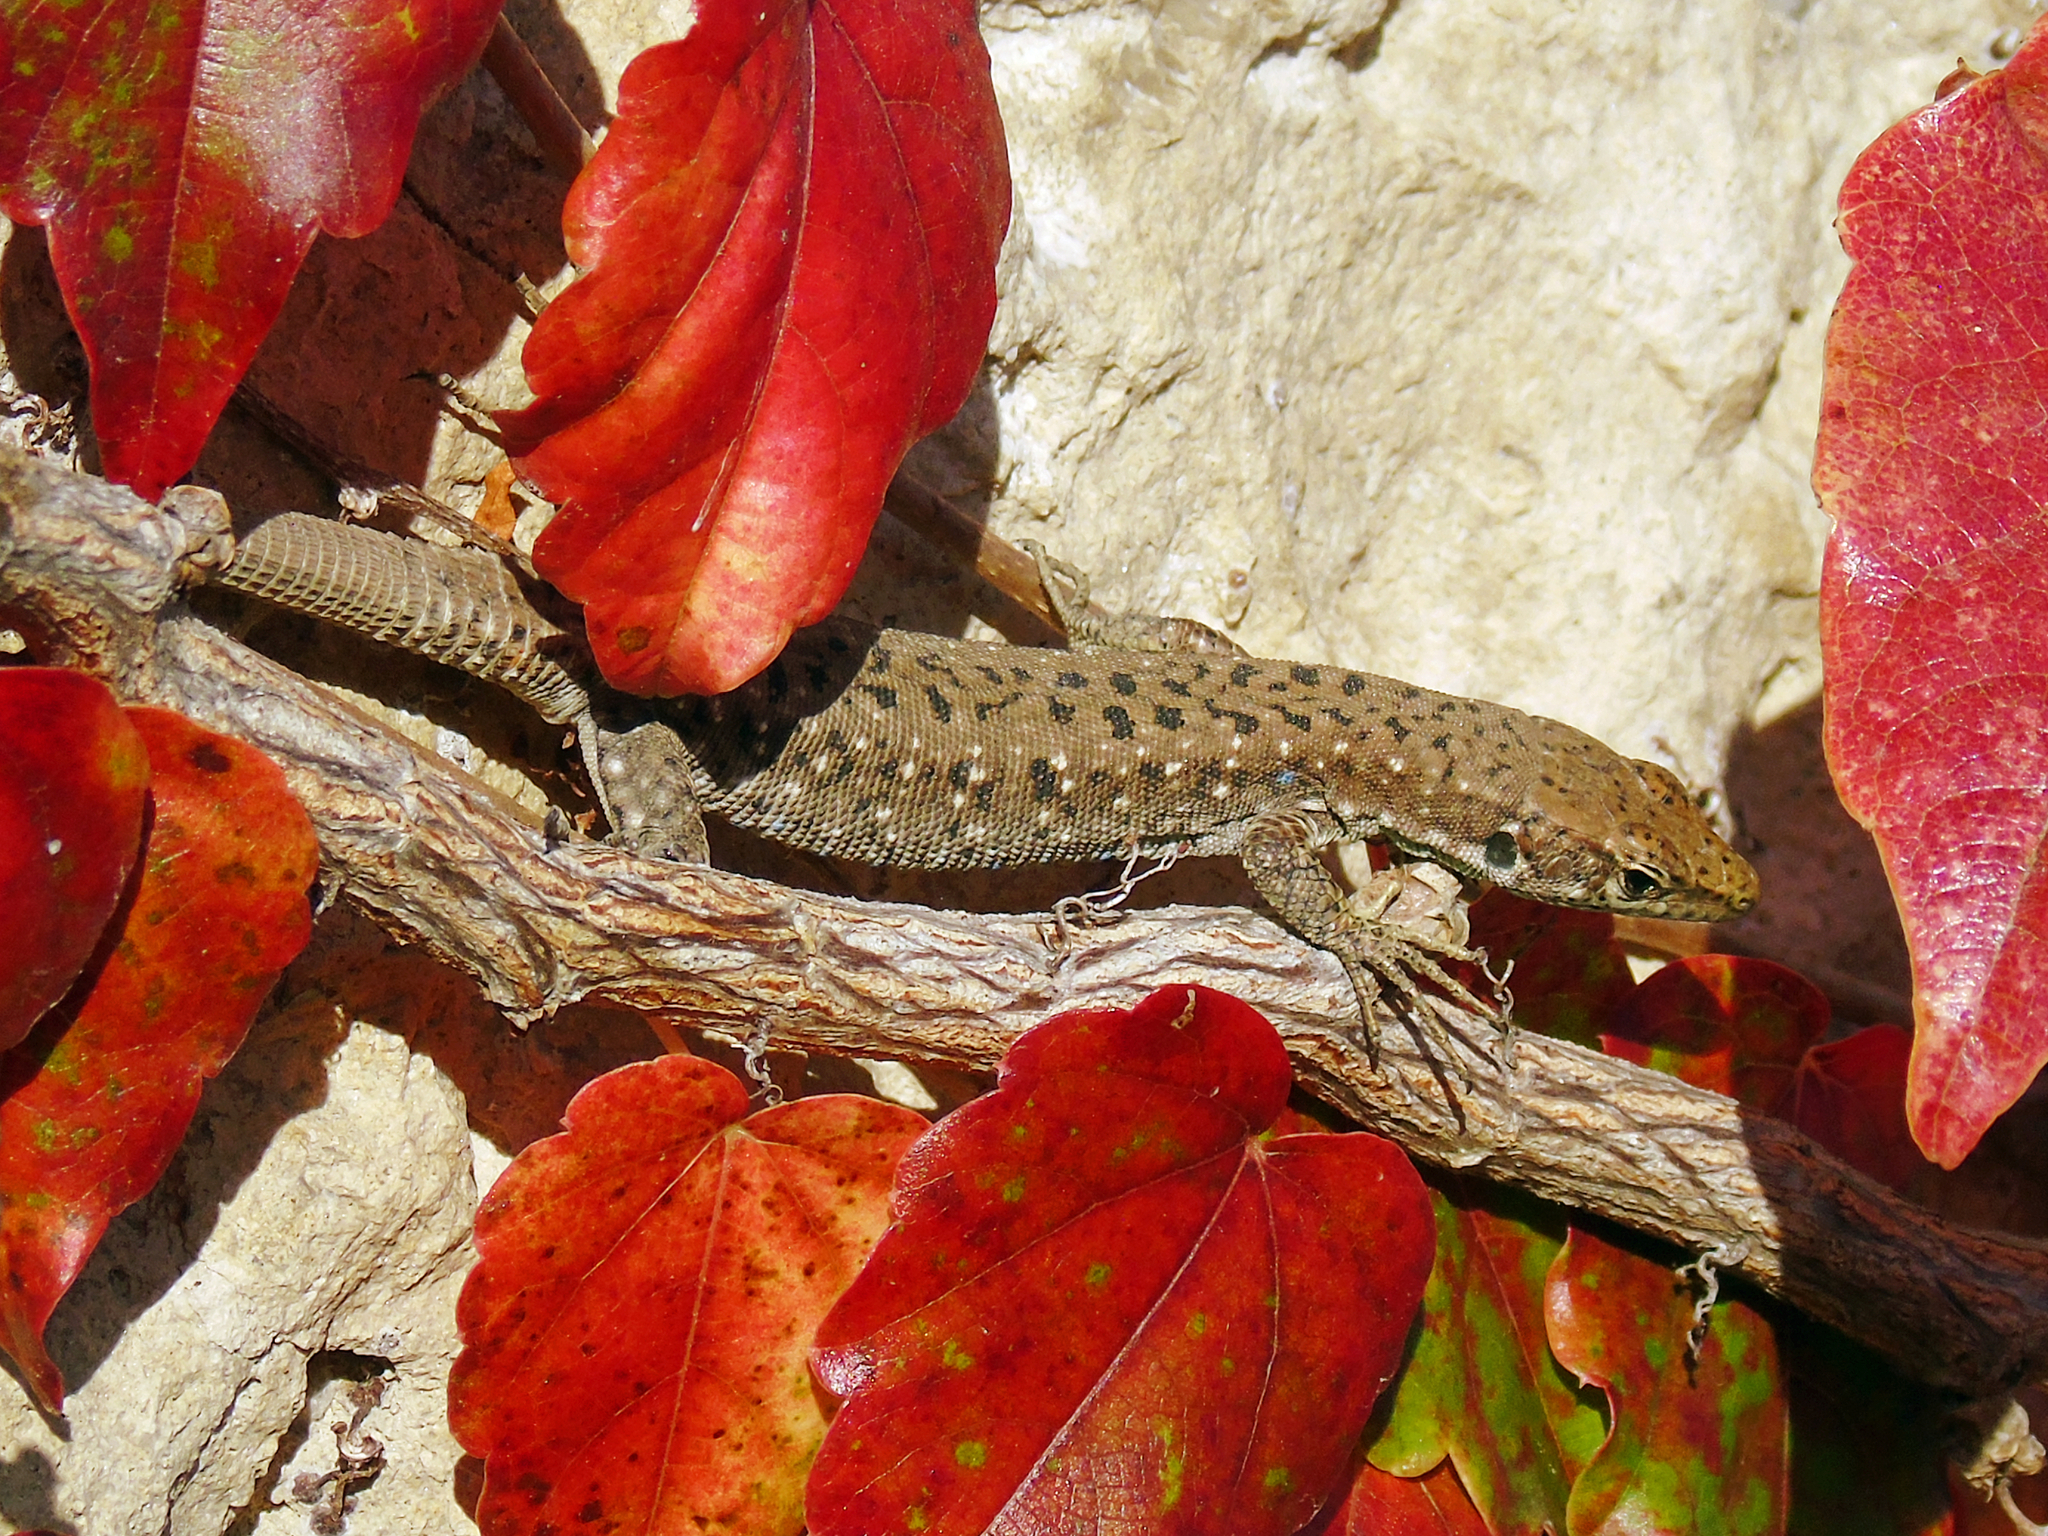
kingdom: Animalia
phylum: Chordata
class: Squamata
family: Lacertidae
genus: Darevskia
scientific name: Darevskia rudis
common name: Spiny-tailed lizard
